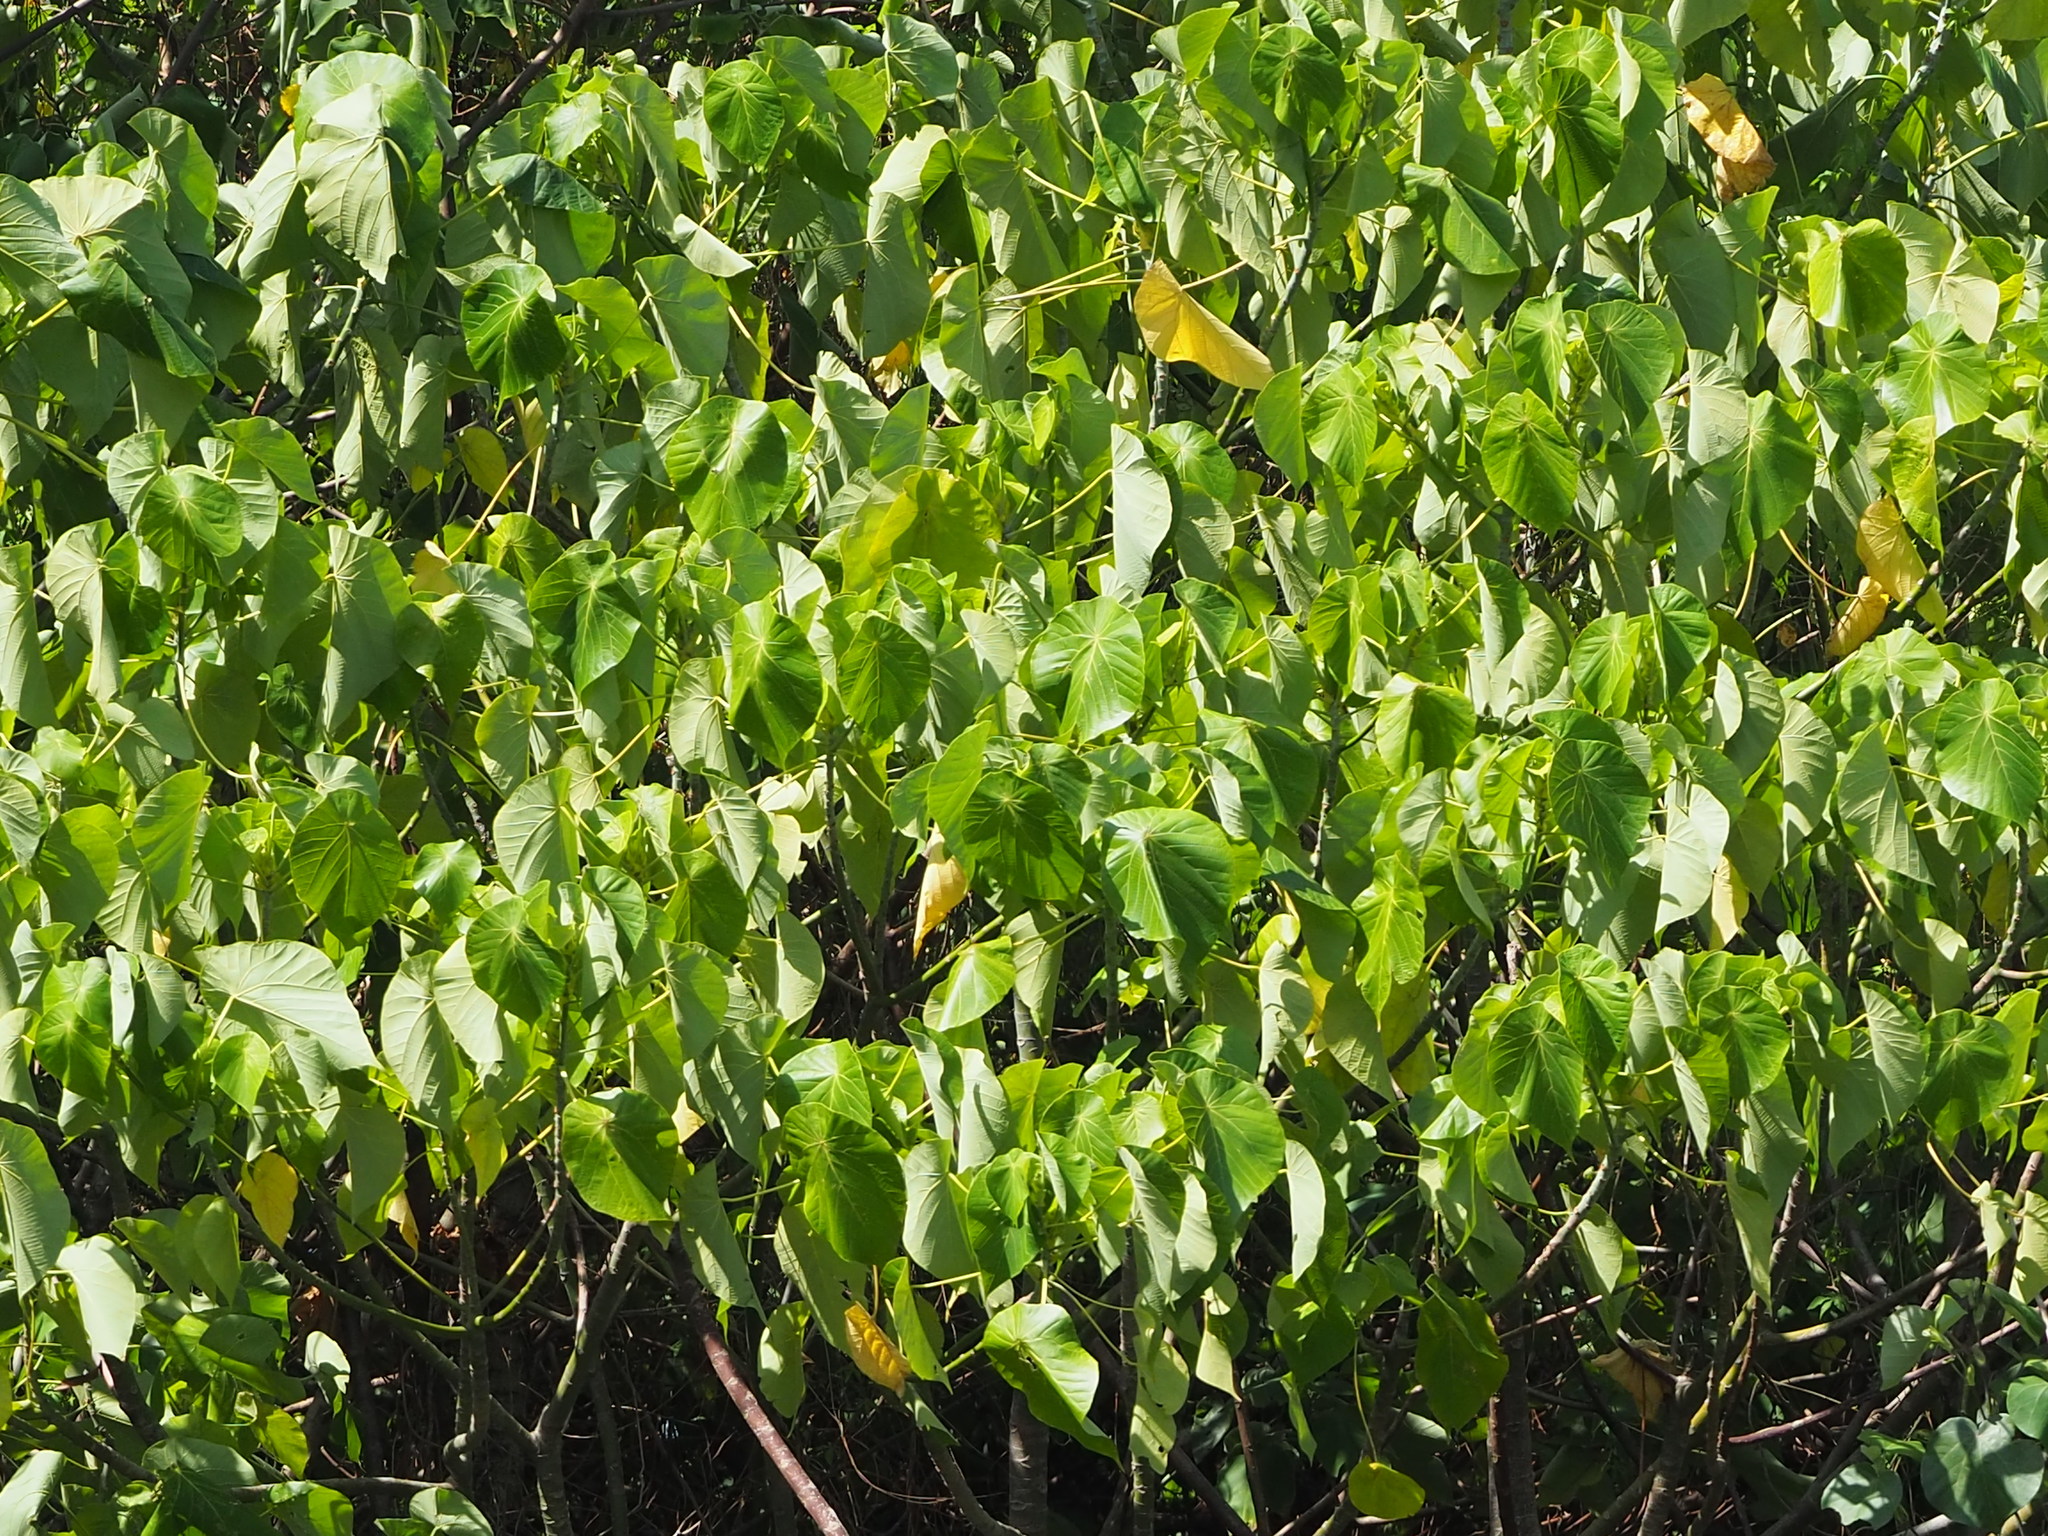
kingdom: Plantae
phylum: Tracheophyta
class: Magnoliopsida
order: Malpighiales
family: Euphorbiaceae
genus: Macaranga
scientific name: Macaranga tanarius
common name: Parasol leaf tree
